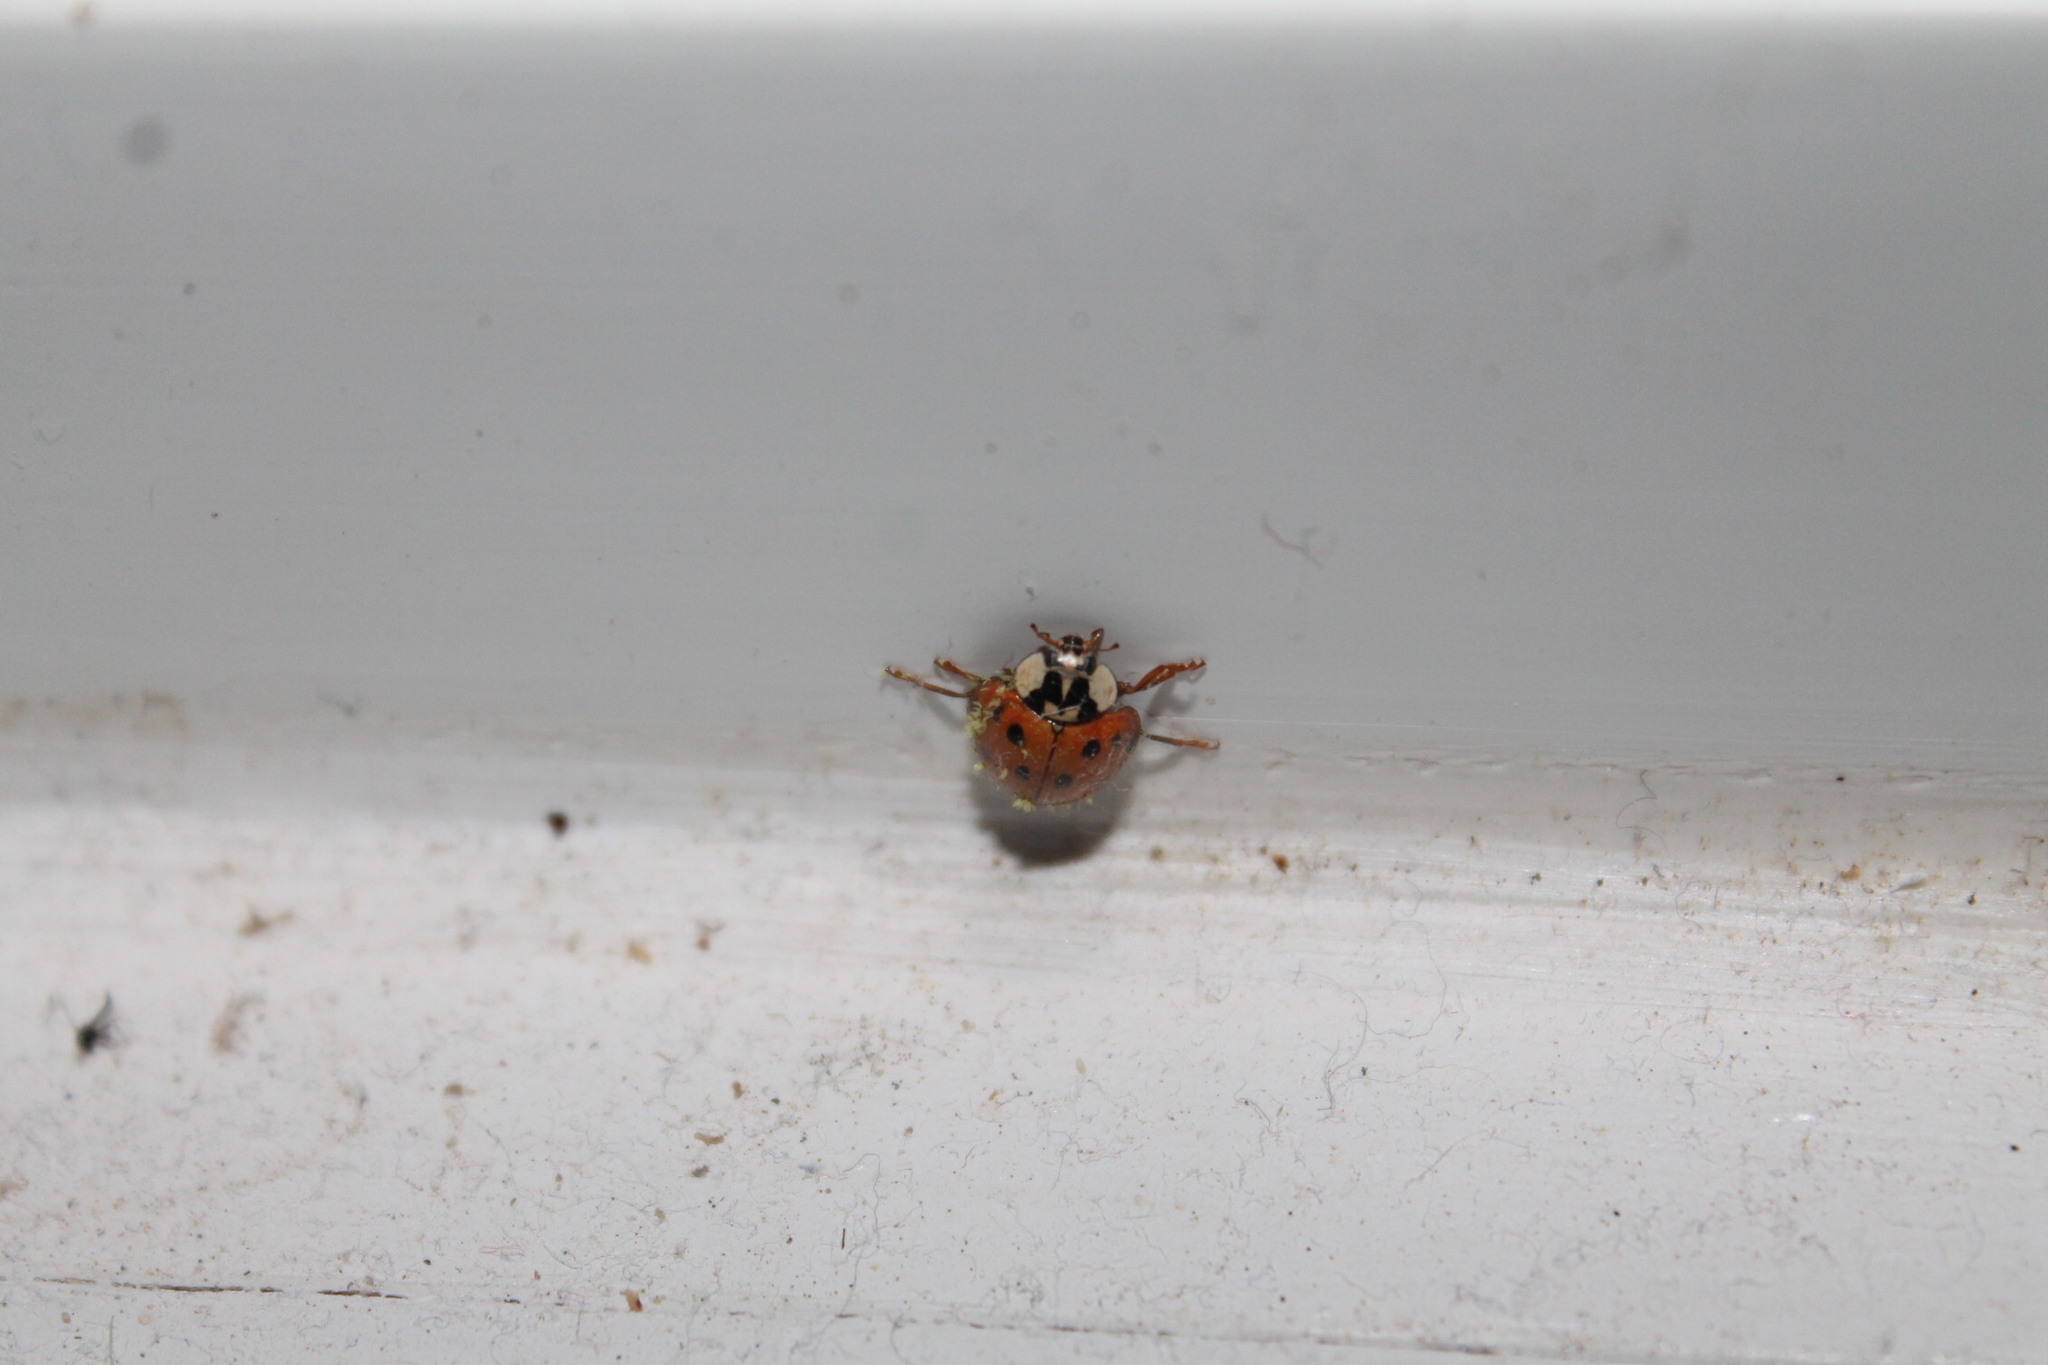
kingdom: Animalia
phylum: Arthropoda
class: Insecta
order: Coleoptera
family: Coccinellidae
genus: Harmonia
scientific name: Harmonia axyridis
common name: Harlequin ladybird
